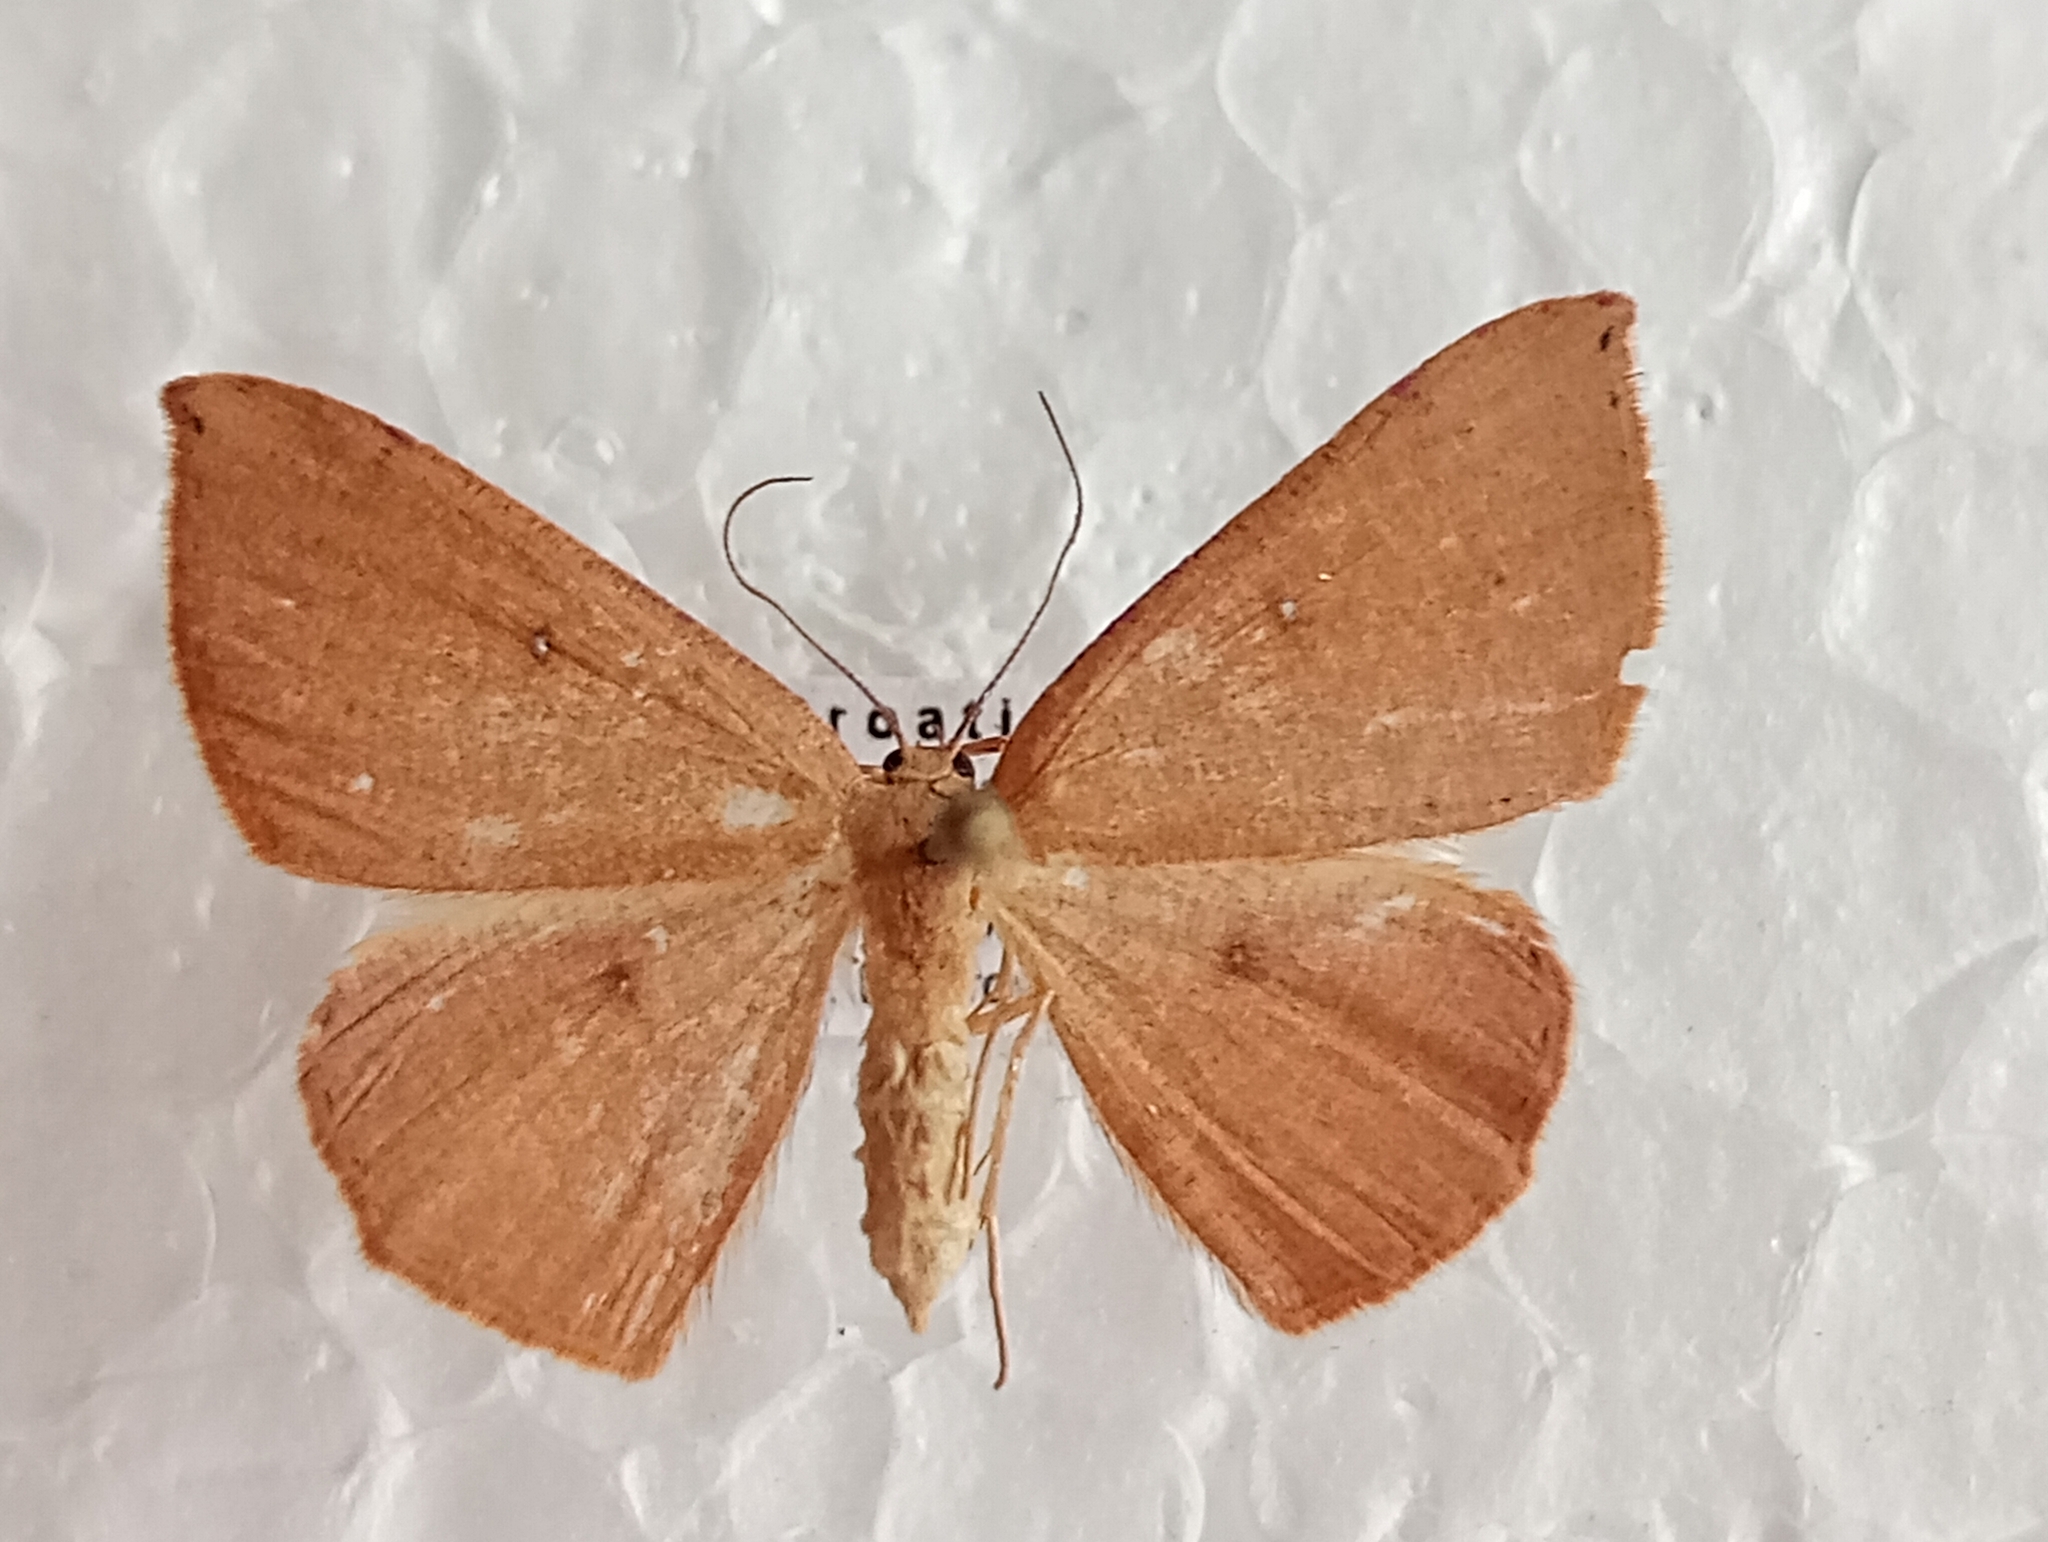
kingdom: Animalia
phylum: Arthropoda
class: Insecta
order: Lepidoptera
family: Geometridae
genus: Cyclophora
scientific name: Cyclophora puppillaria
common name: Blair's mocha
